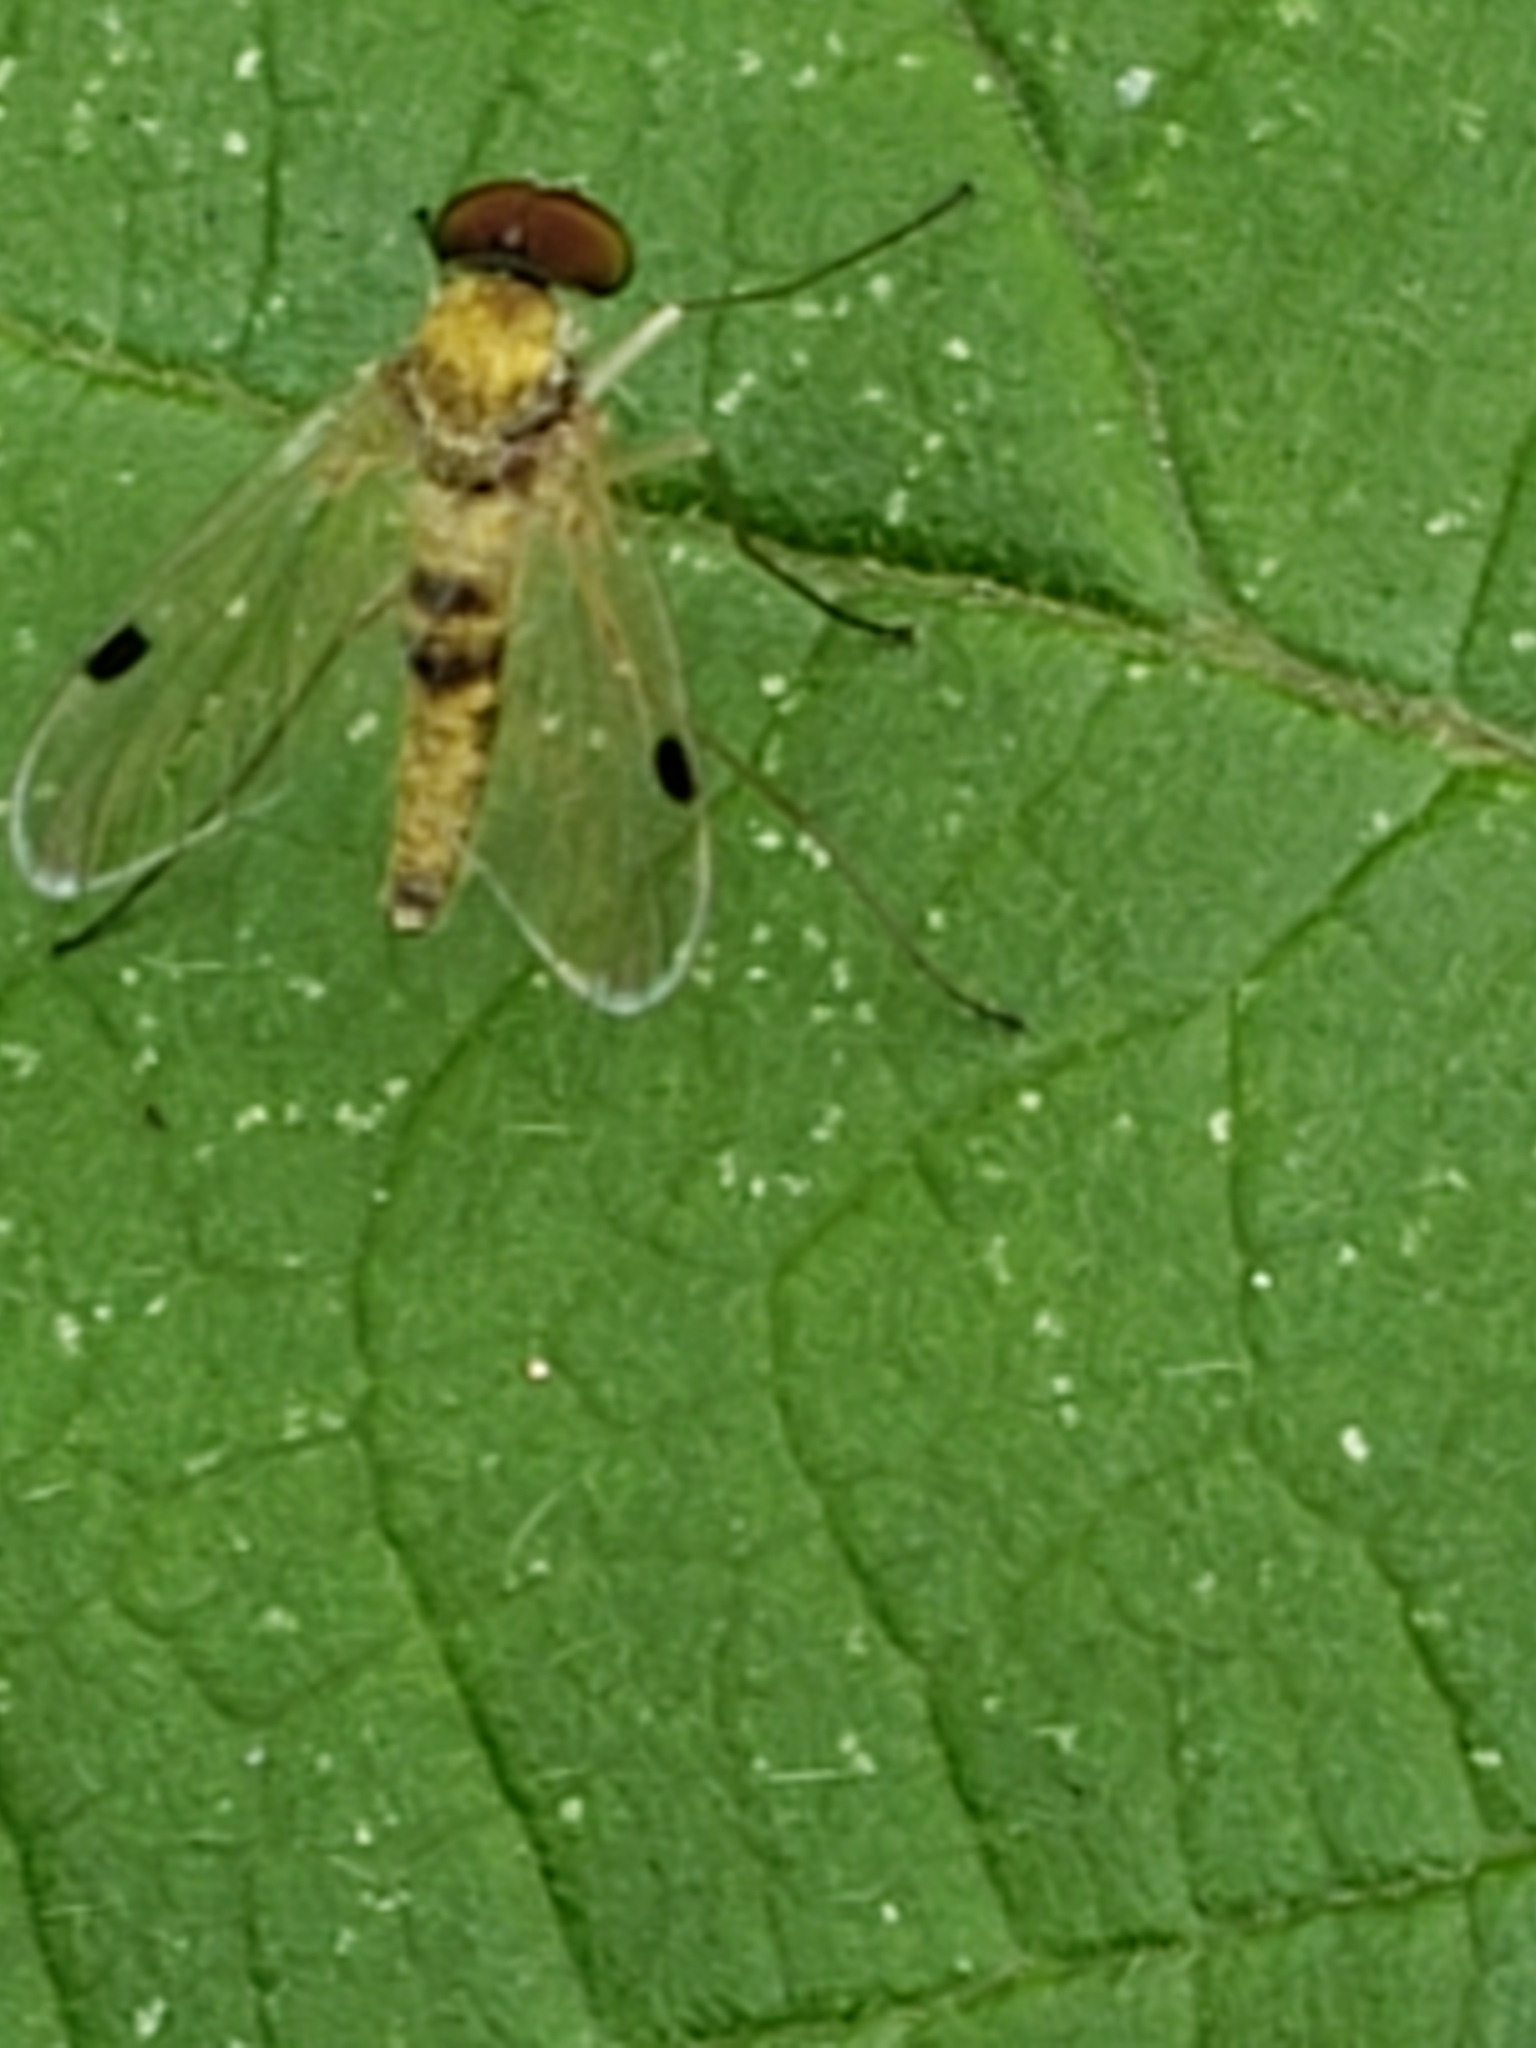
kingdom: Animalia
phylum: Arthropoda
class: Insecta
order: Diptera
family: Rhagionidae
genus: Chrysopilus
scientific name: Chrysopilus modestus
